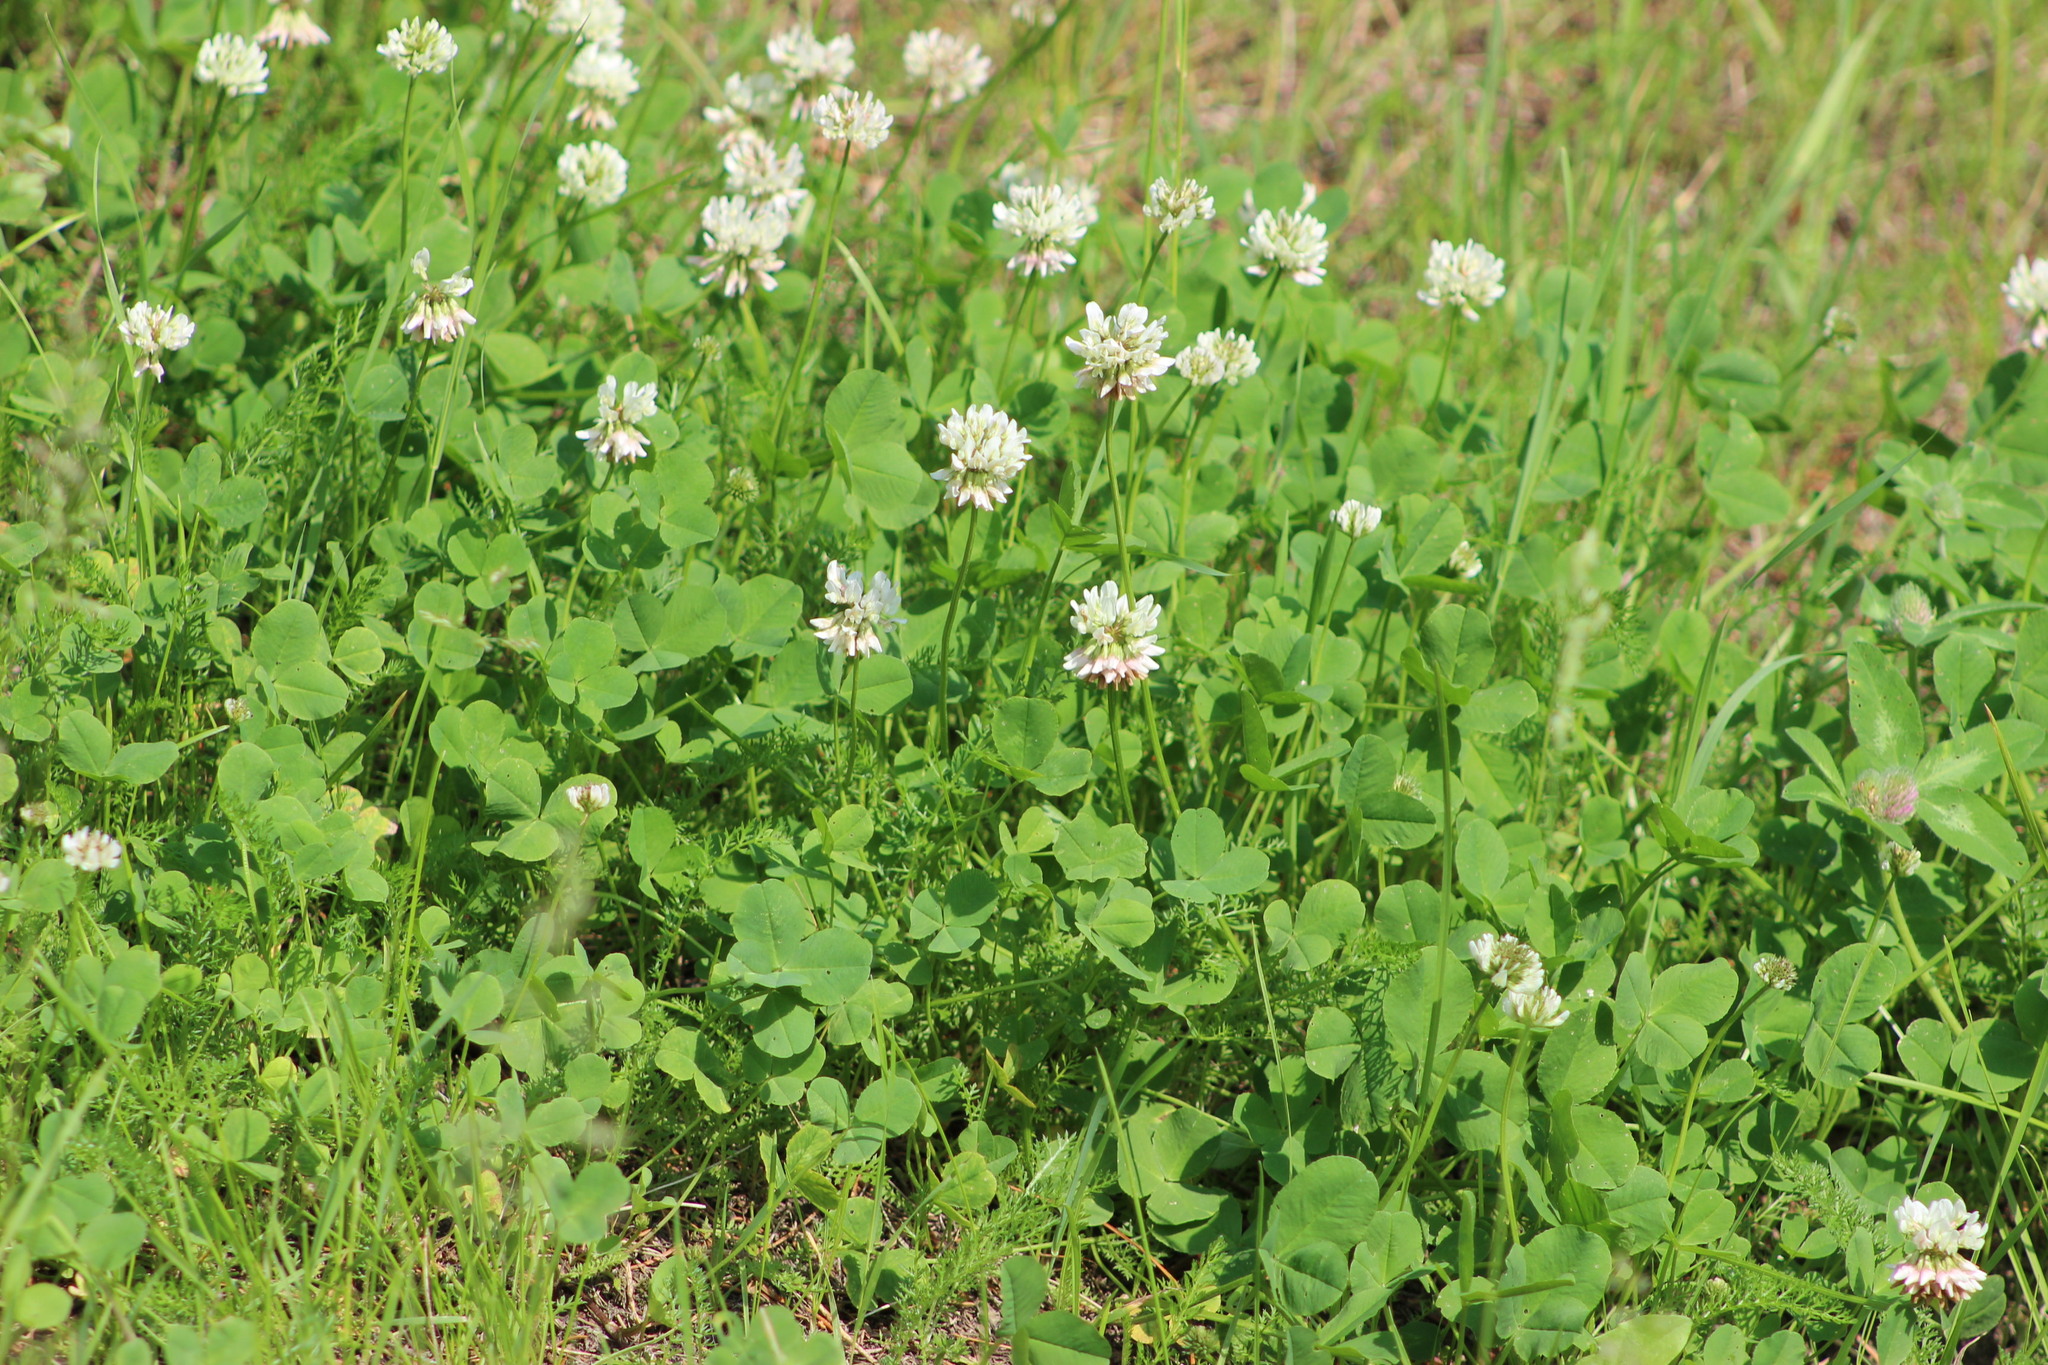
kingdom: Plantae
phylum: Tracheophyta
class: Magnoliopsida
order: Fabales
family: Fabaceae
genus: Trifolium
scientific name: Trifolium repens
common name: White clover
